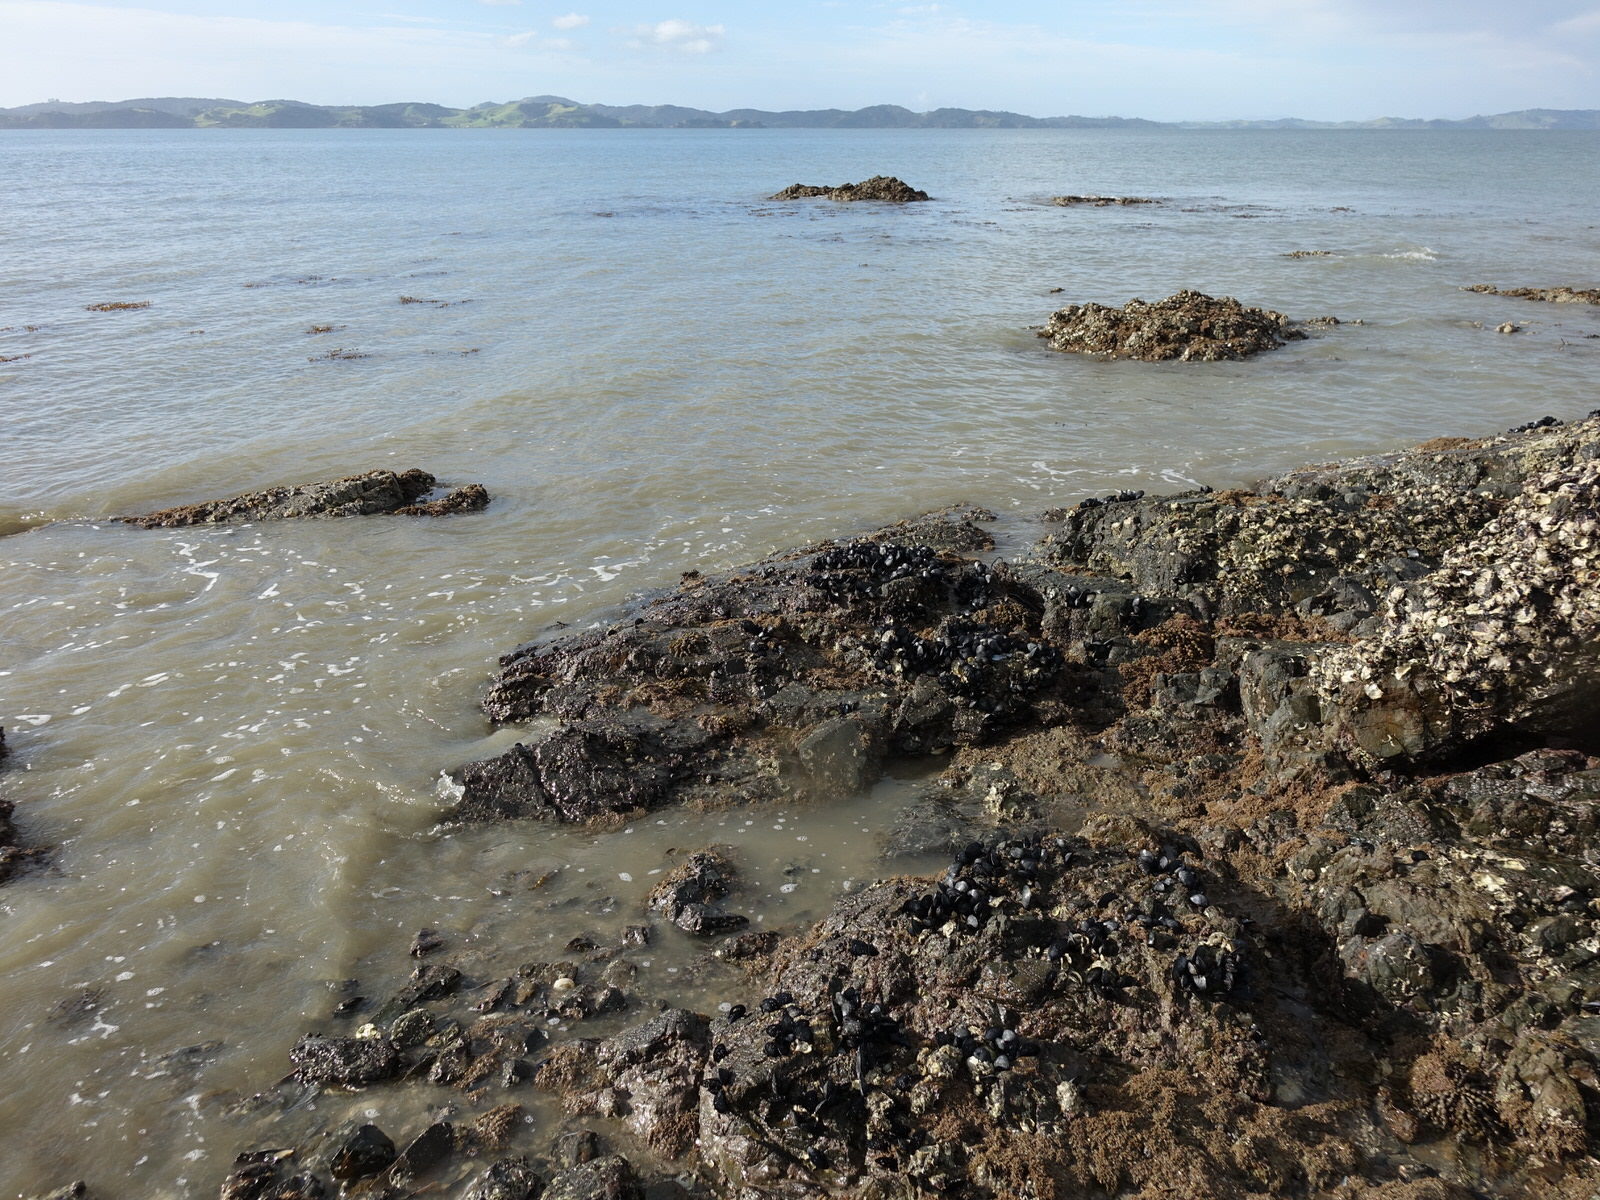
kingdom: Animalia
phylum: Mollusca
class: Bivalvia
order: Mytilida
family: Mytilidae
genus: Mytilus
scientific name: Mytilus planulatus
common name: Australian mussel
